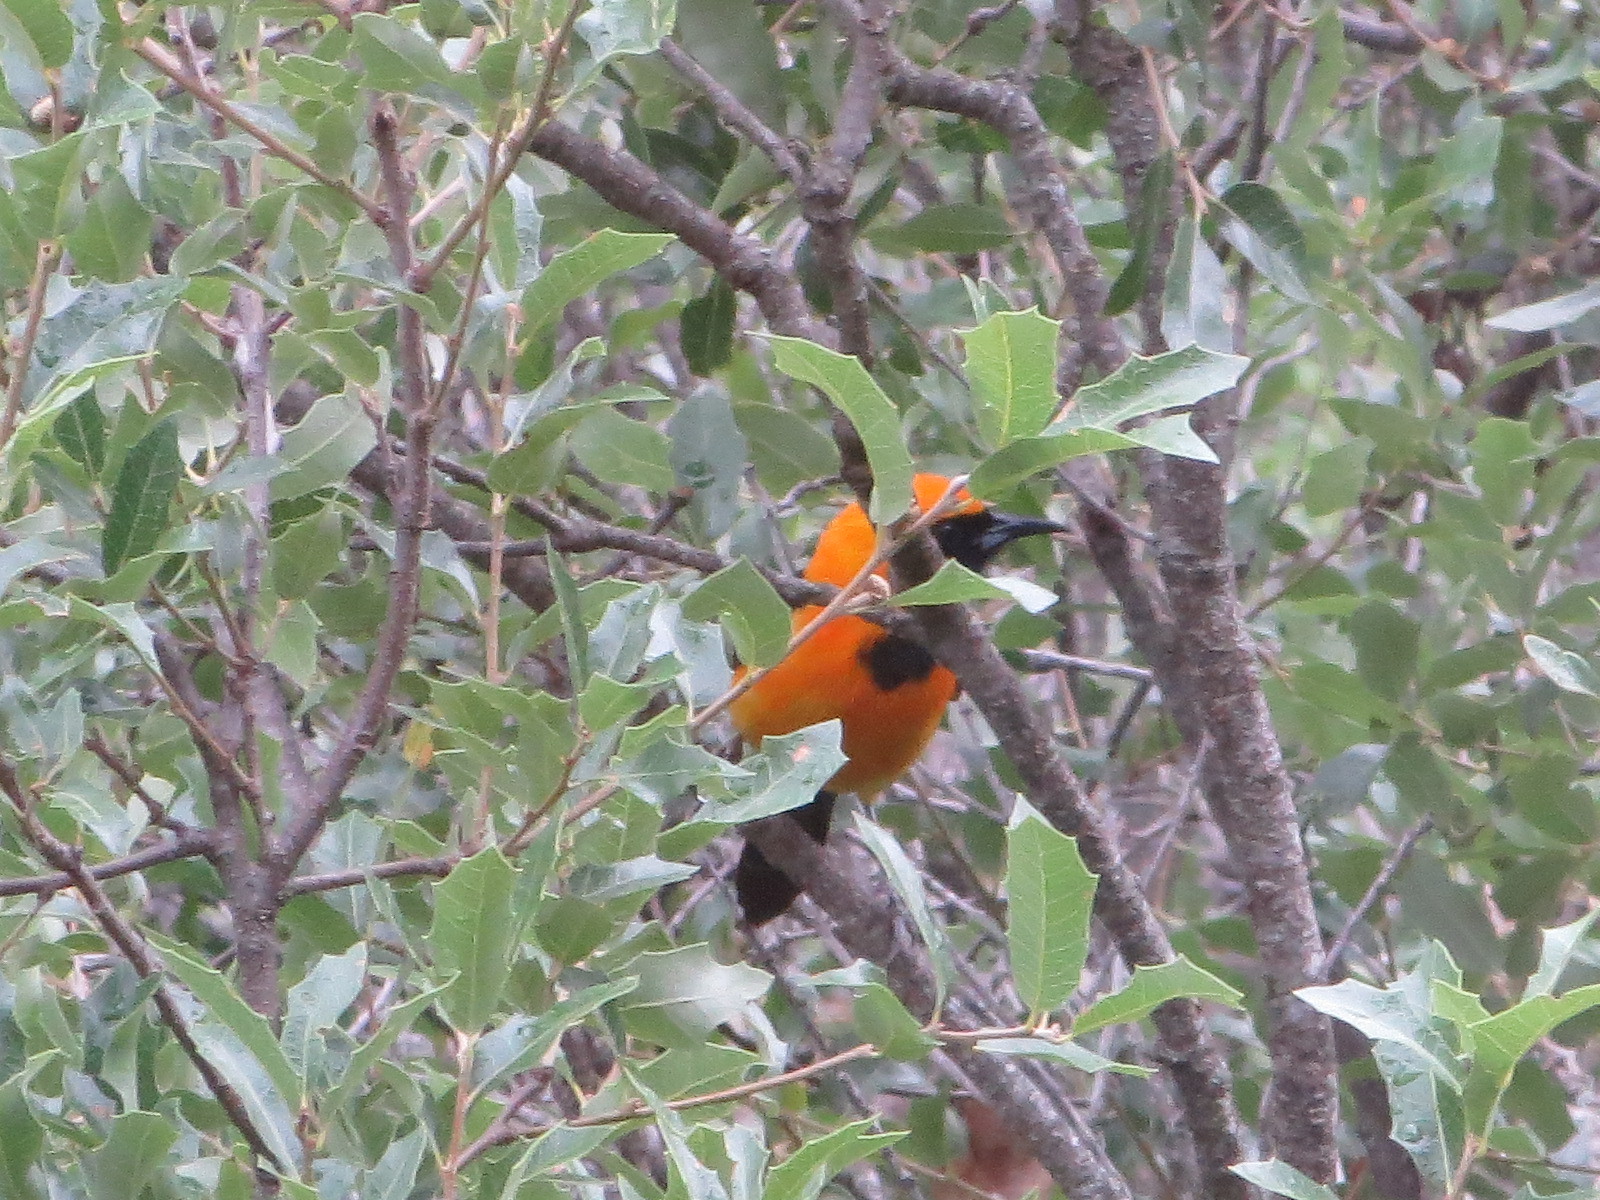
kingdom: Animalia
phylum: Chordata
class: Aves
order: Passeriformes
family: Icteridae
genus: Icterus
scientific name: Icterus cucullatus
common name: Hooded oriole
